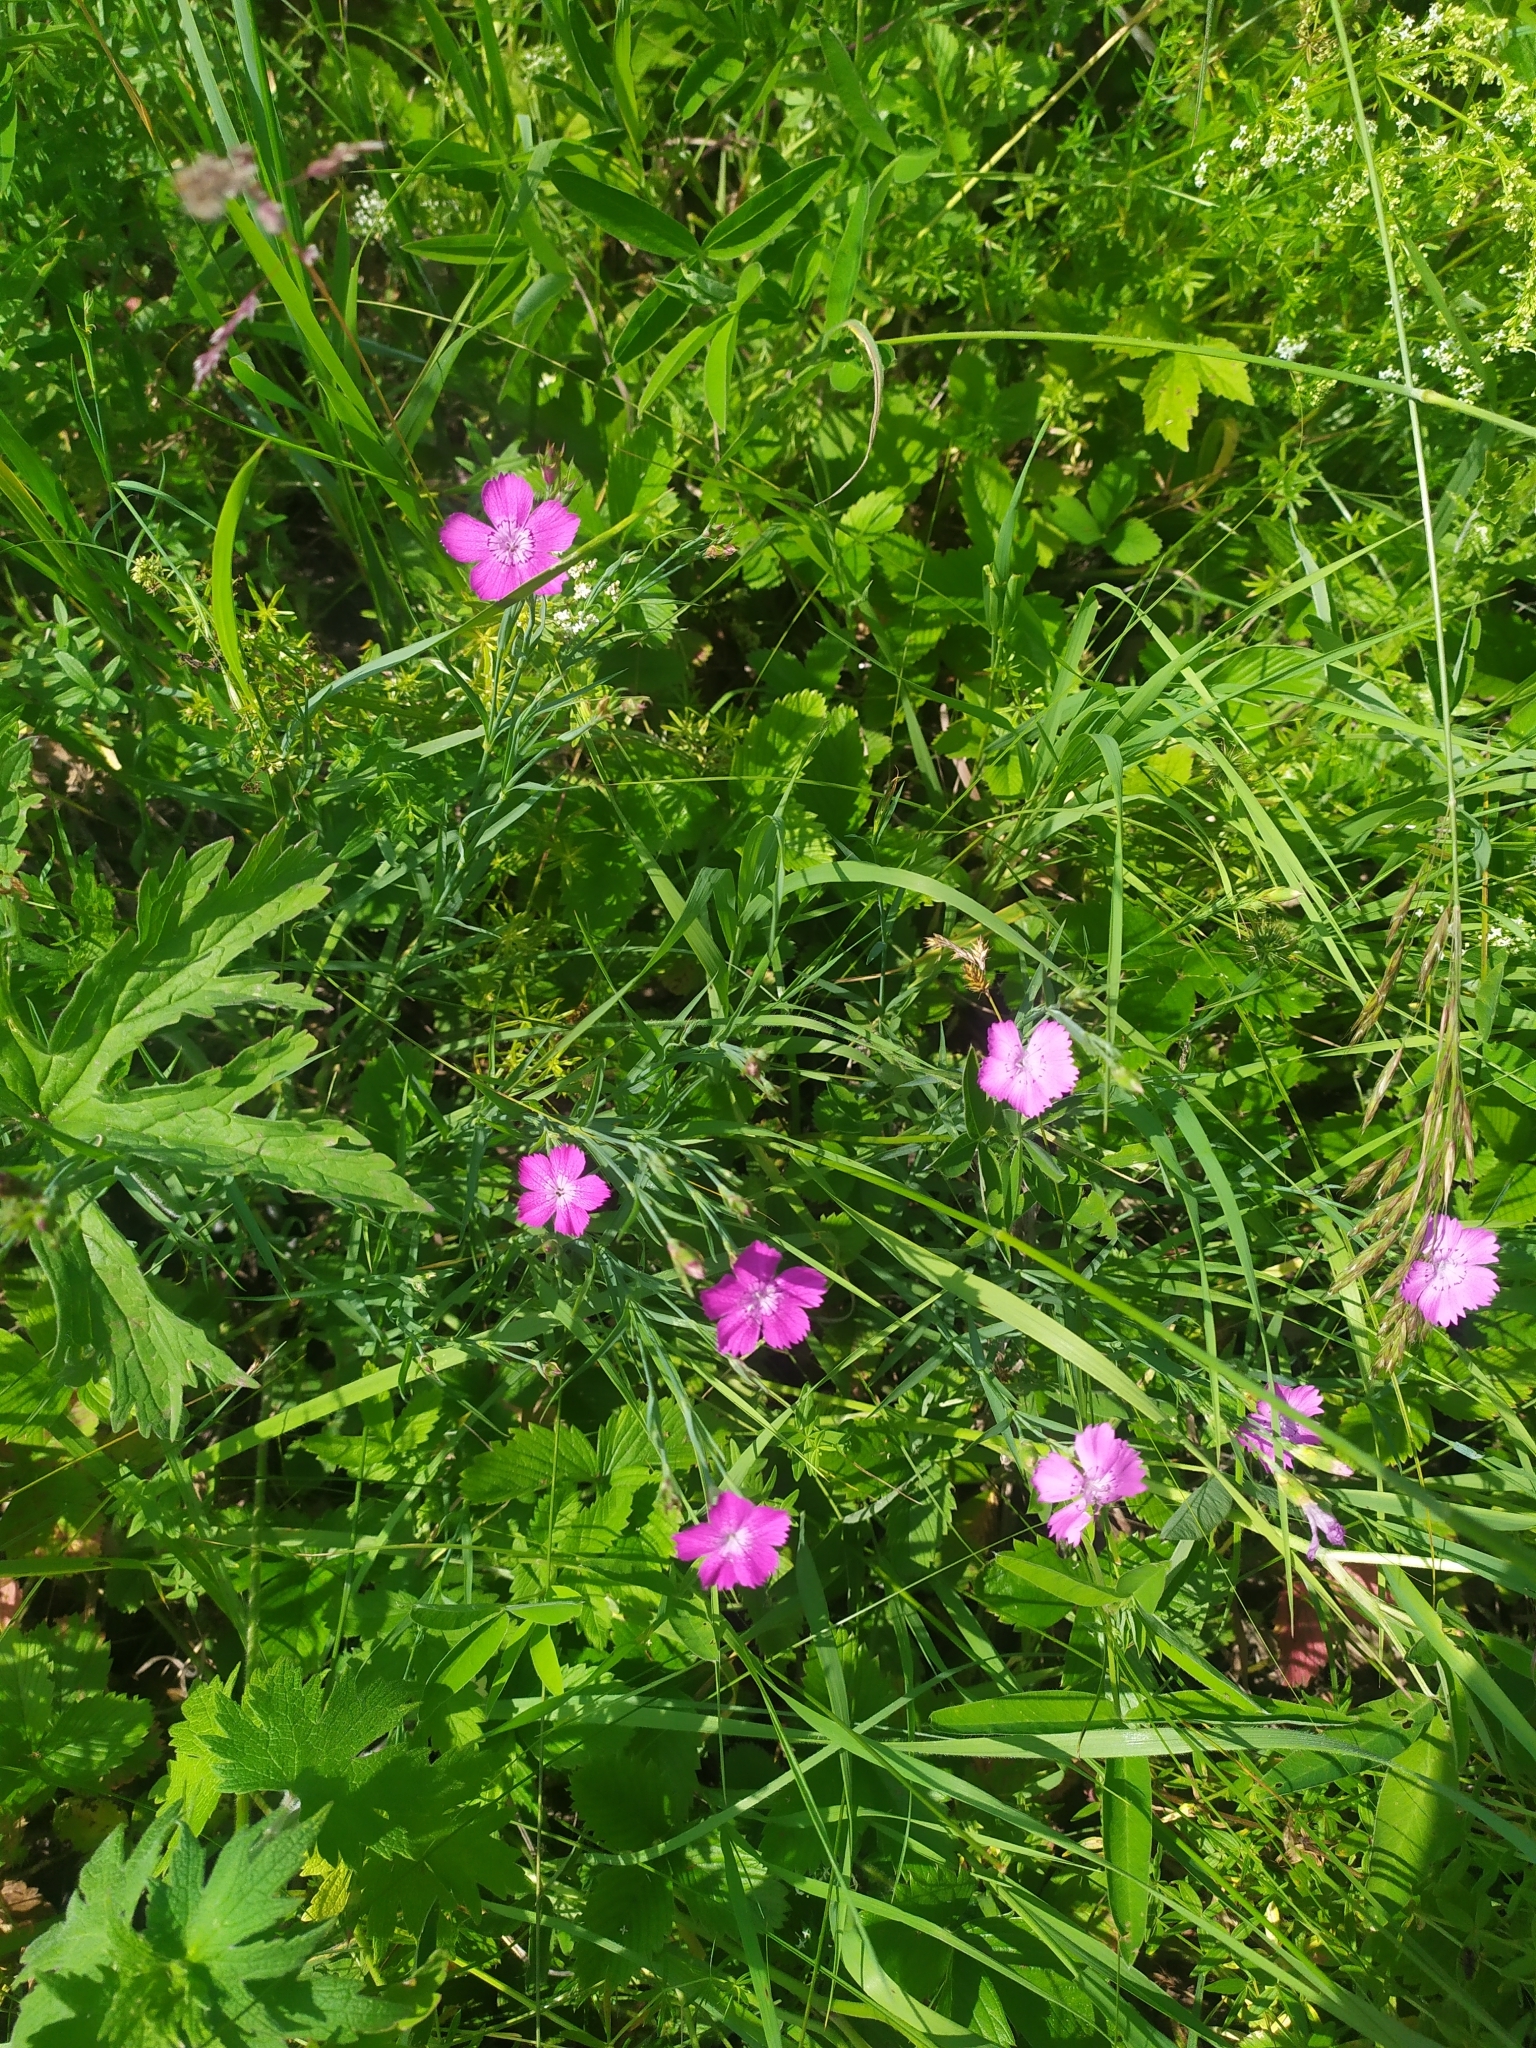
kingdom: Plantae
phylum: Tracheophyta
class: Magnoliopsida
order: Caryophyllales
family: Caryophyllaceae
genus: Dianthus
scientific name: Dianthus chinensis
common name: Rainbow pink
